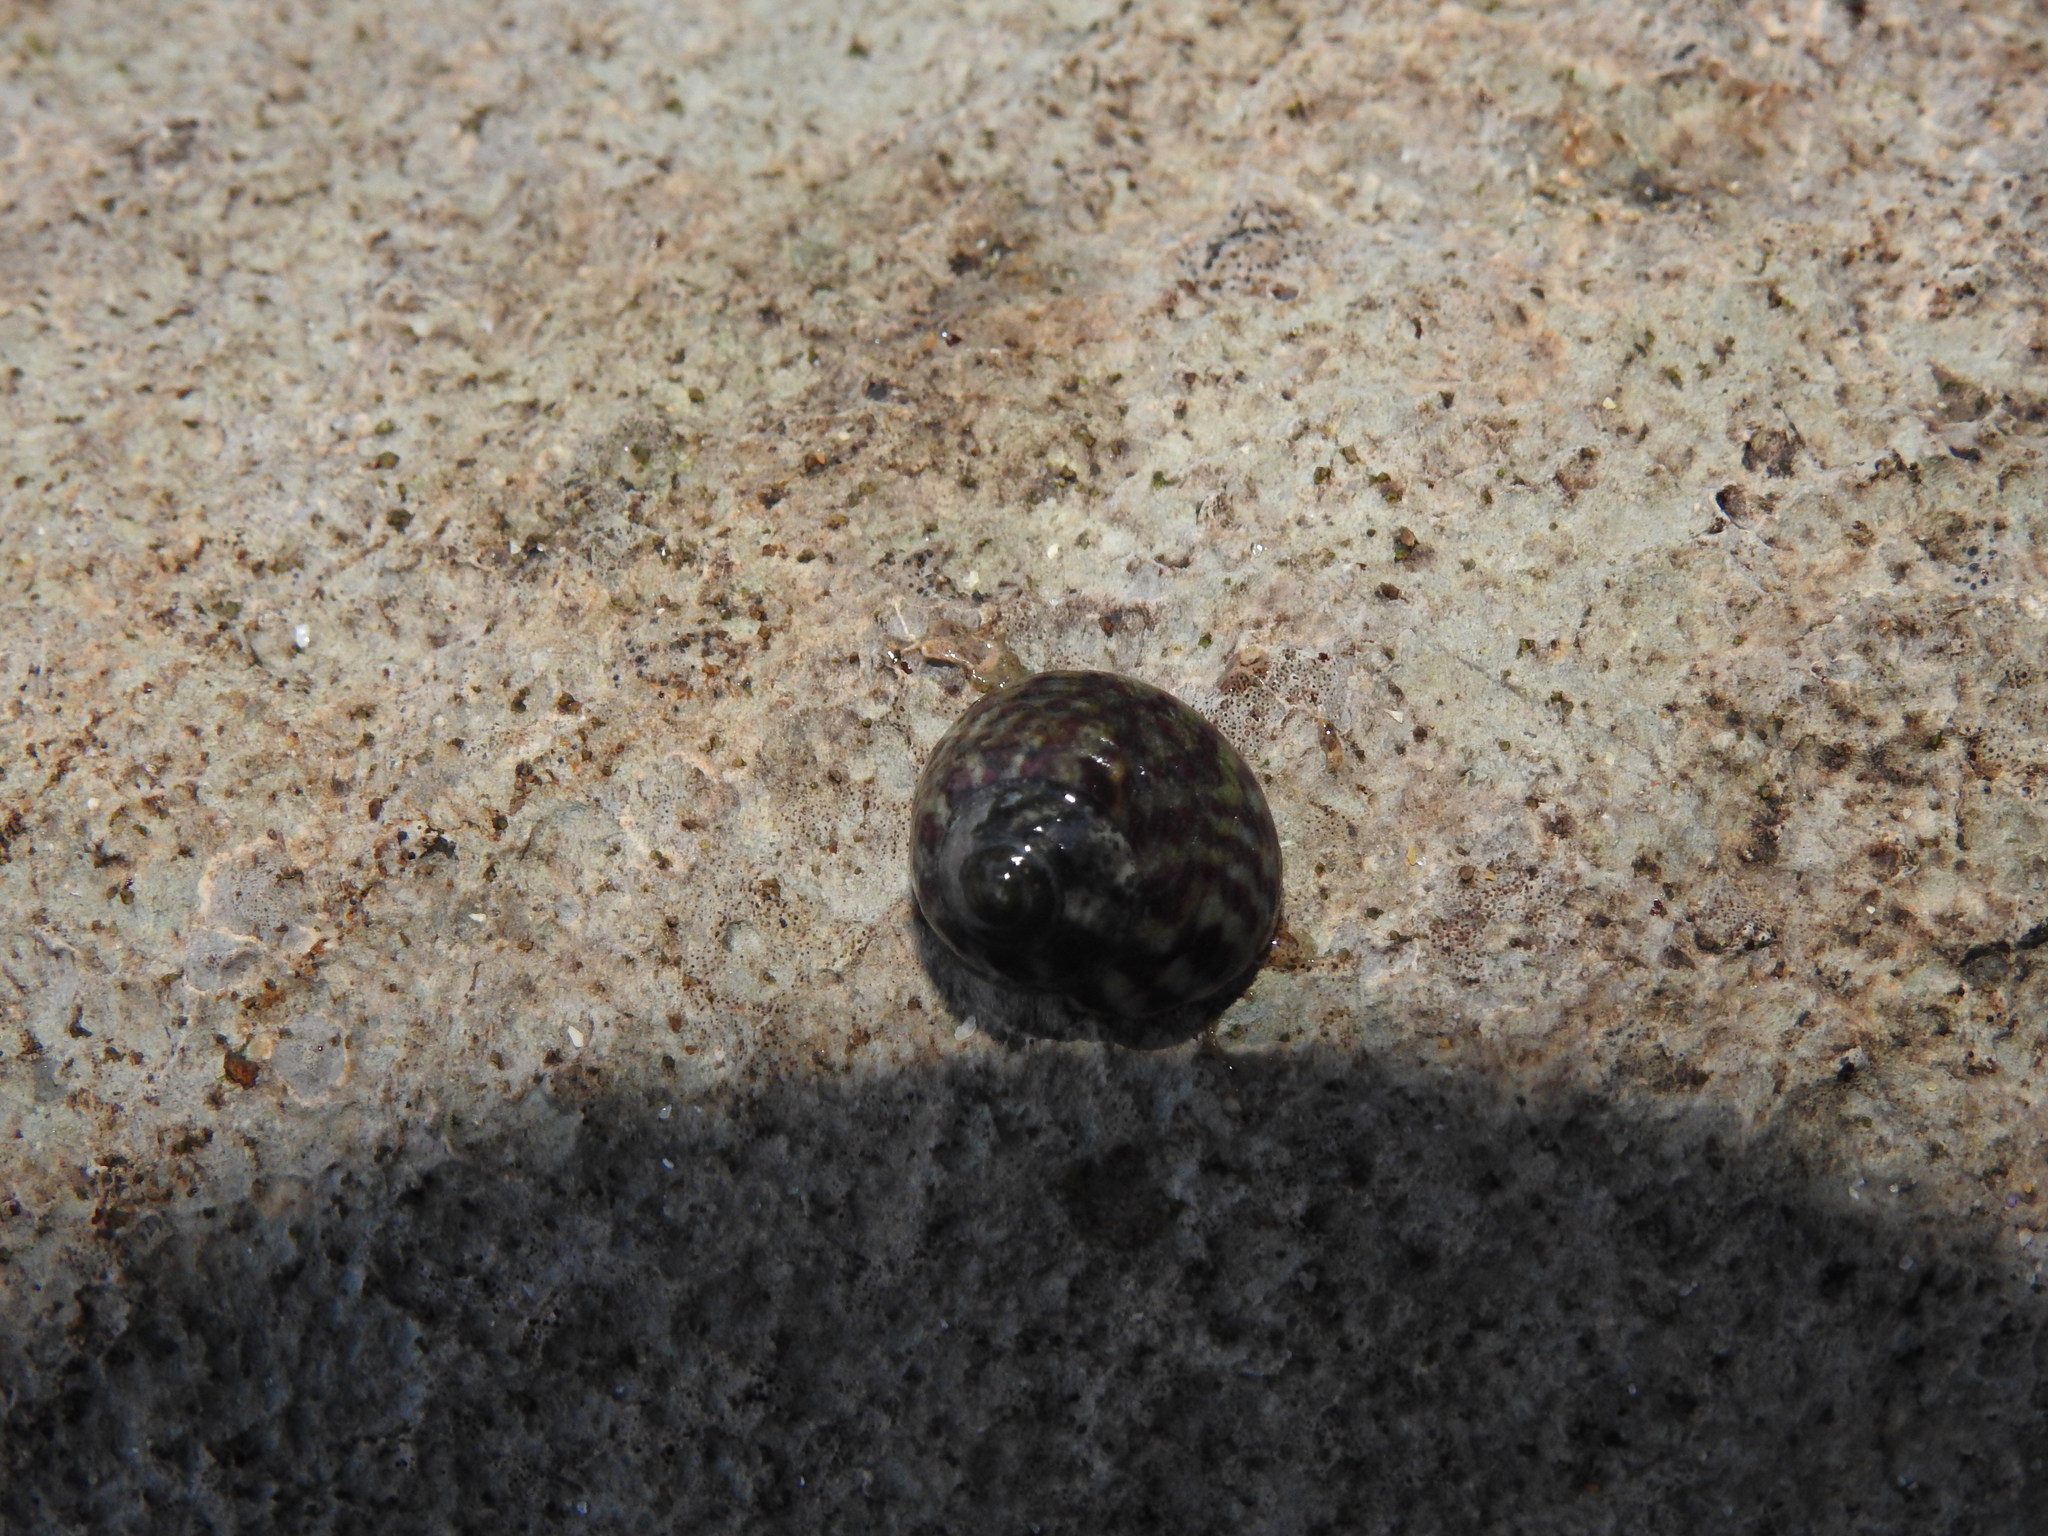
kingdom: Animalia
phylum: Mollusca
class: Gastropoda
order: Trochida
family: Trochidae
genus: Steromphala
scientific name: Steromphala umbilicalis
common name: Flat top shell
